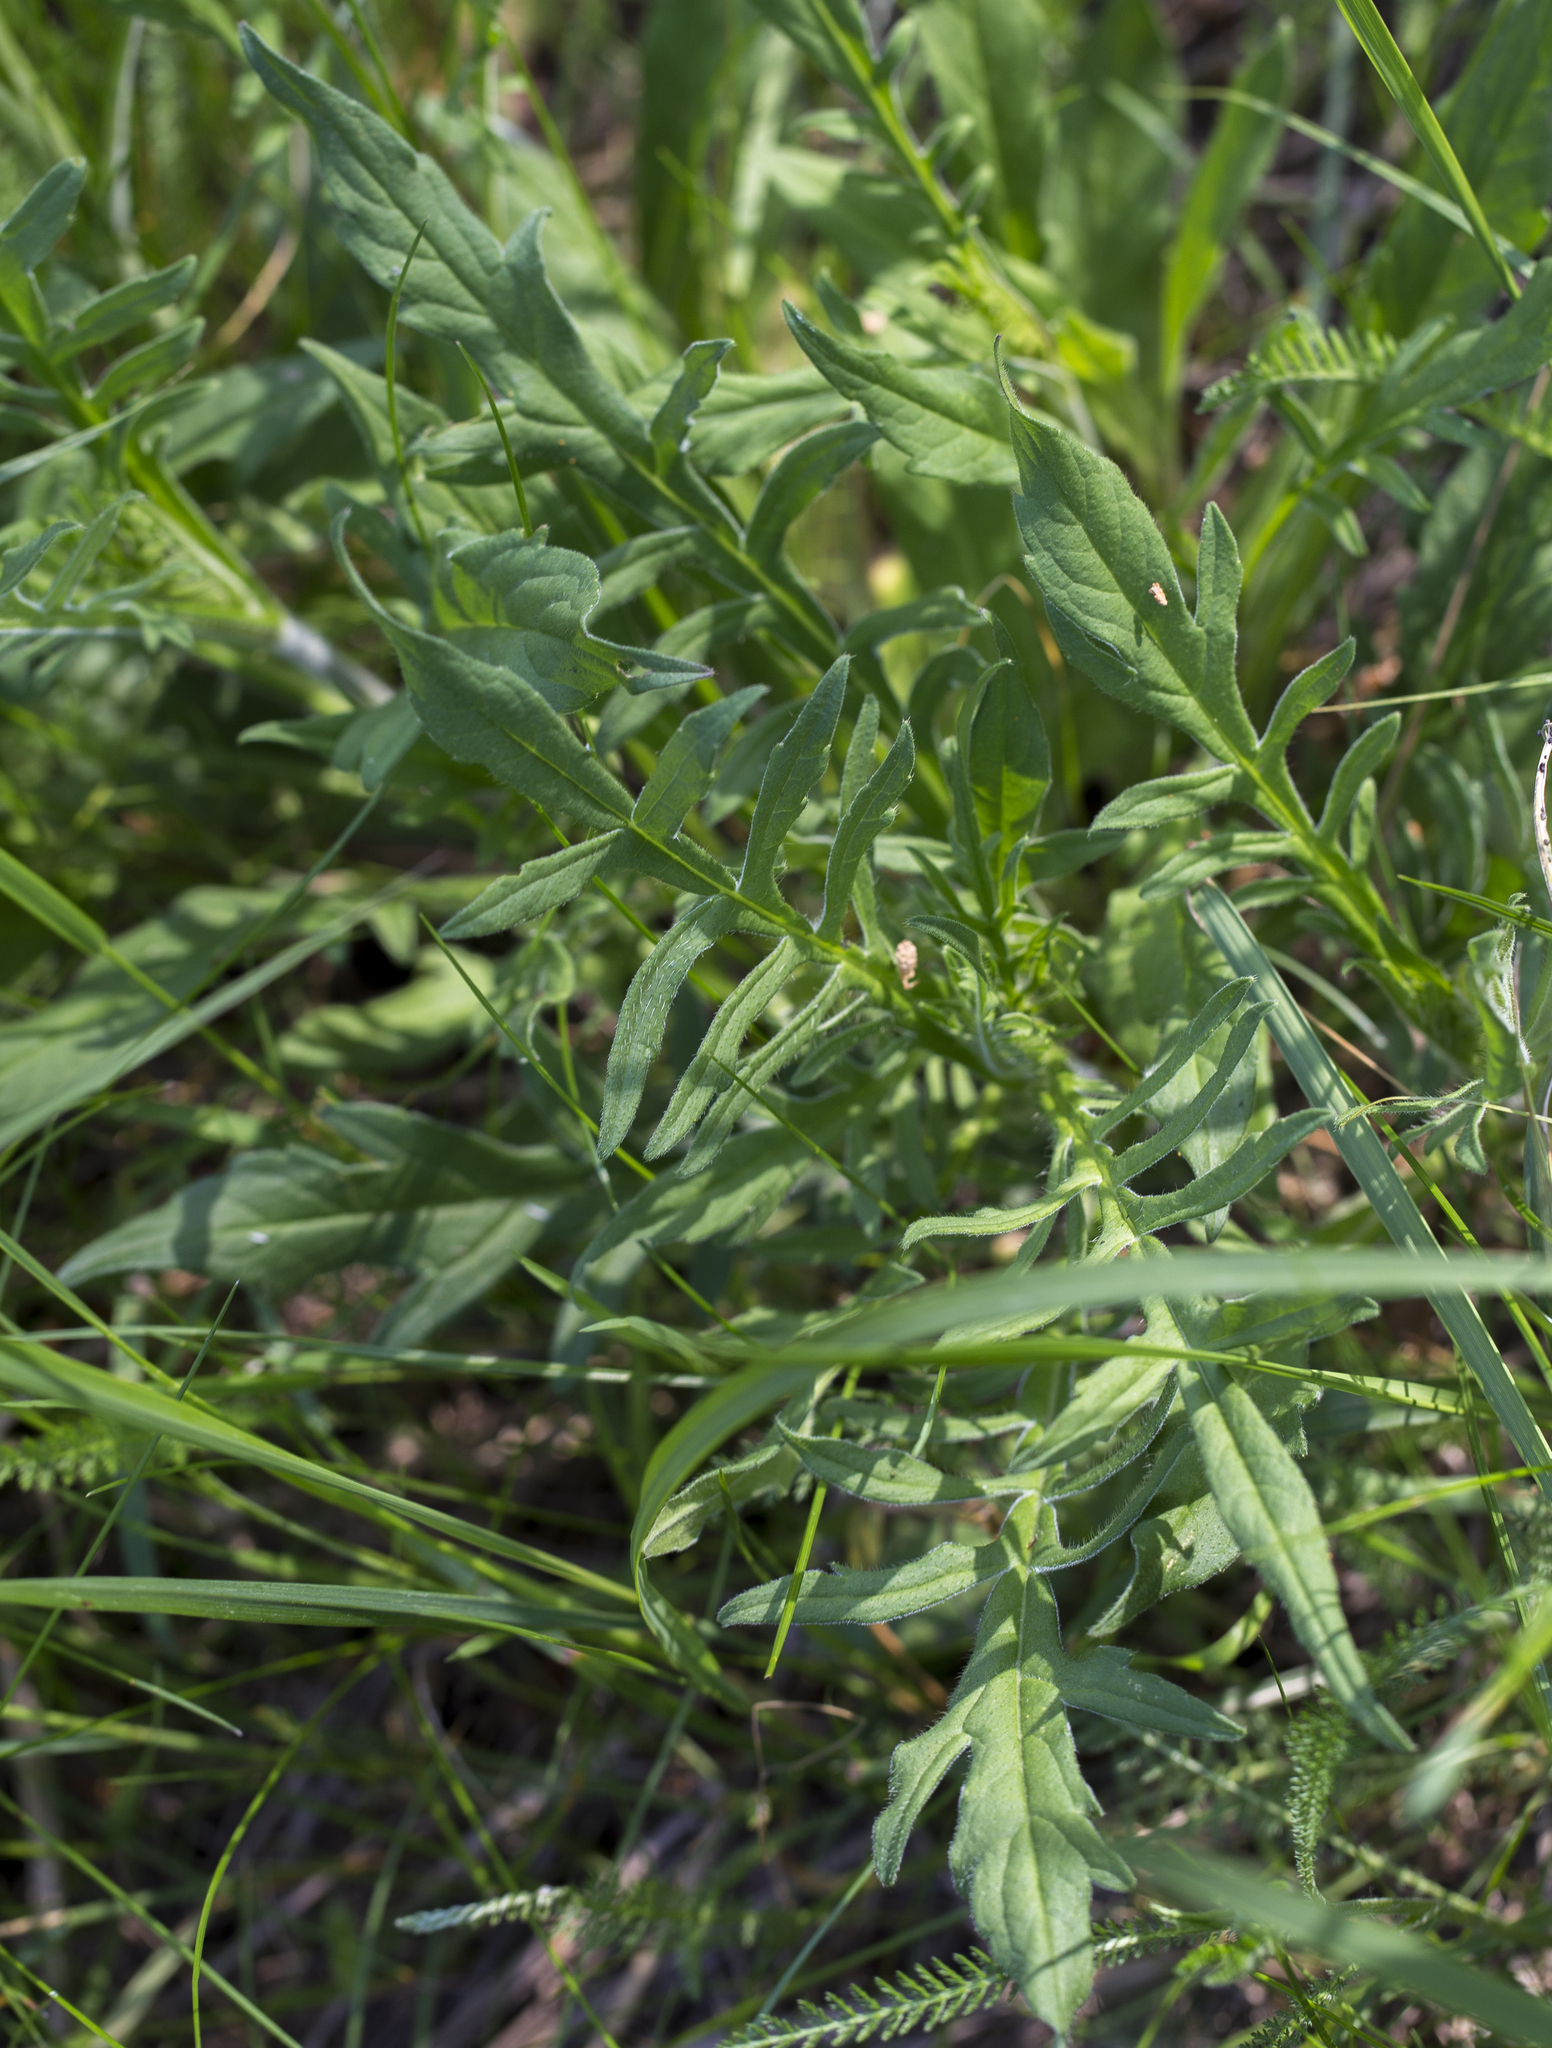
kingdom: Plantae
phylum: Tracheophyta
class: Magnoliopsida
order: Dipsacales
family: Caprifoliaceae
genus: Knautia
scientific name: Knautia arvensis
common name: Field scabiosa
